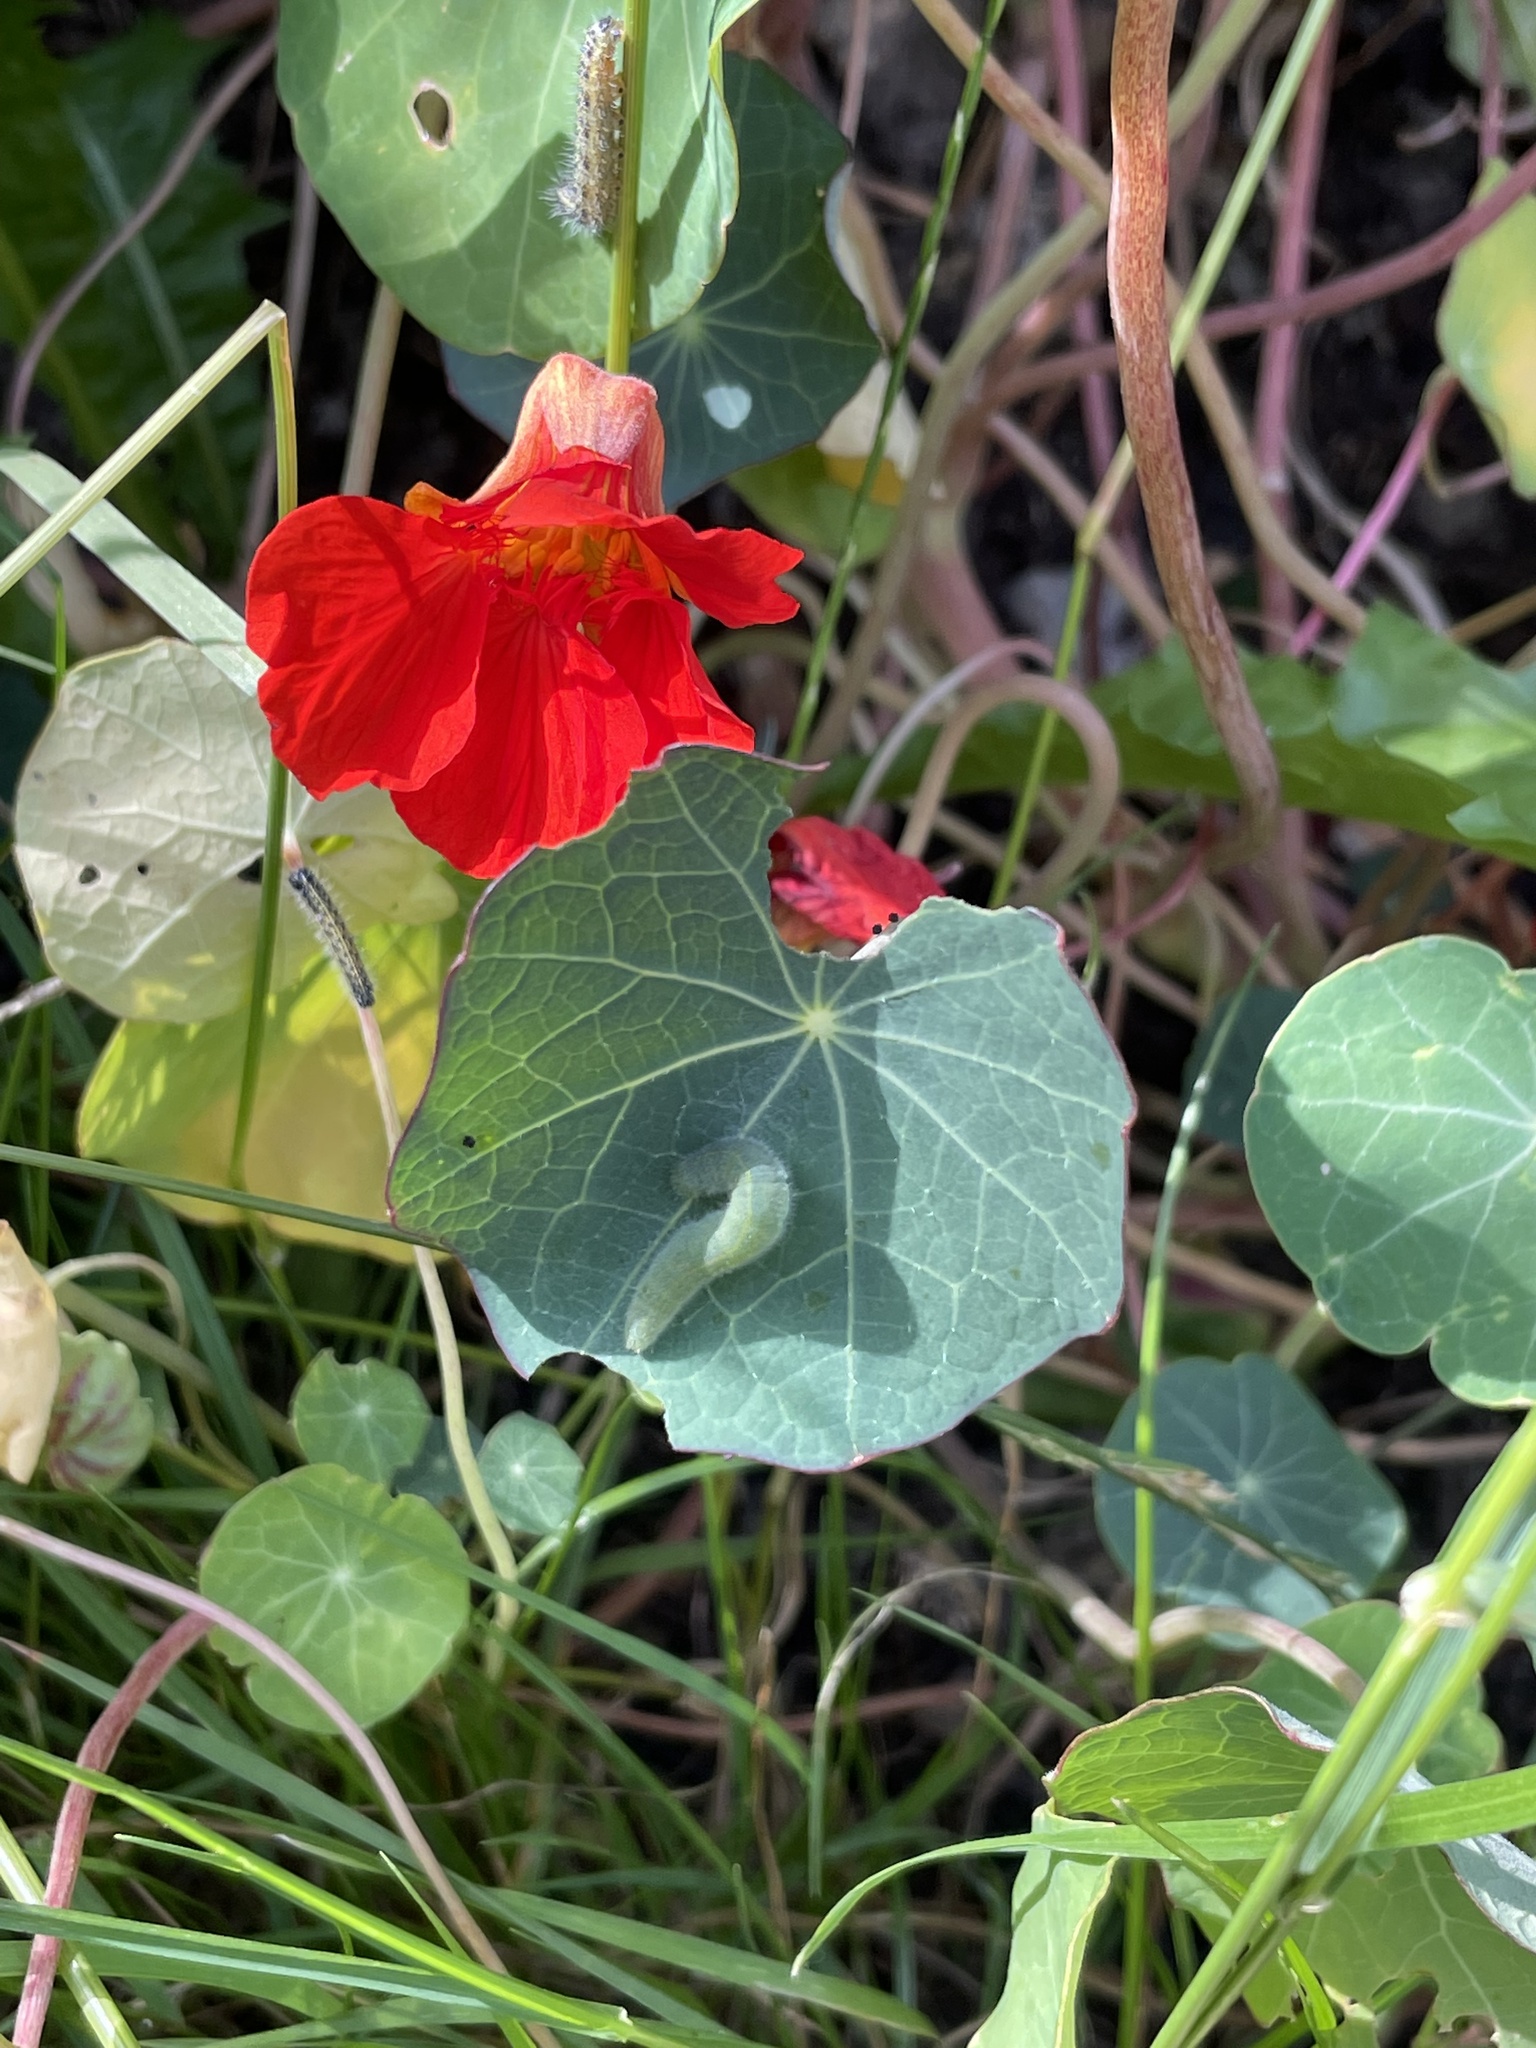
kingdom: Animalia
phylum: Arthropoda
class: Insecta
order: Lepidoptera
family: Pieridae
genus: Pieris
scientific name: Pieris rapae
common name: Small white
